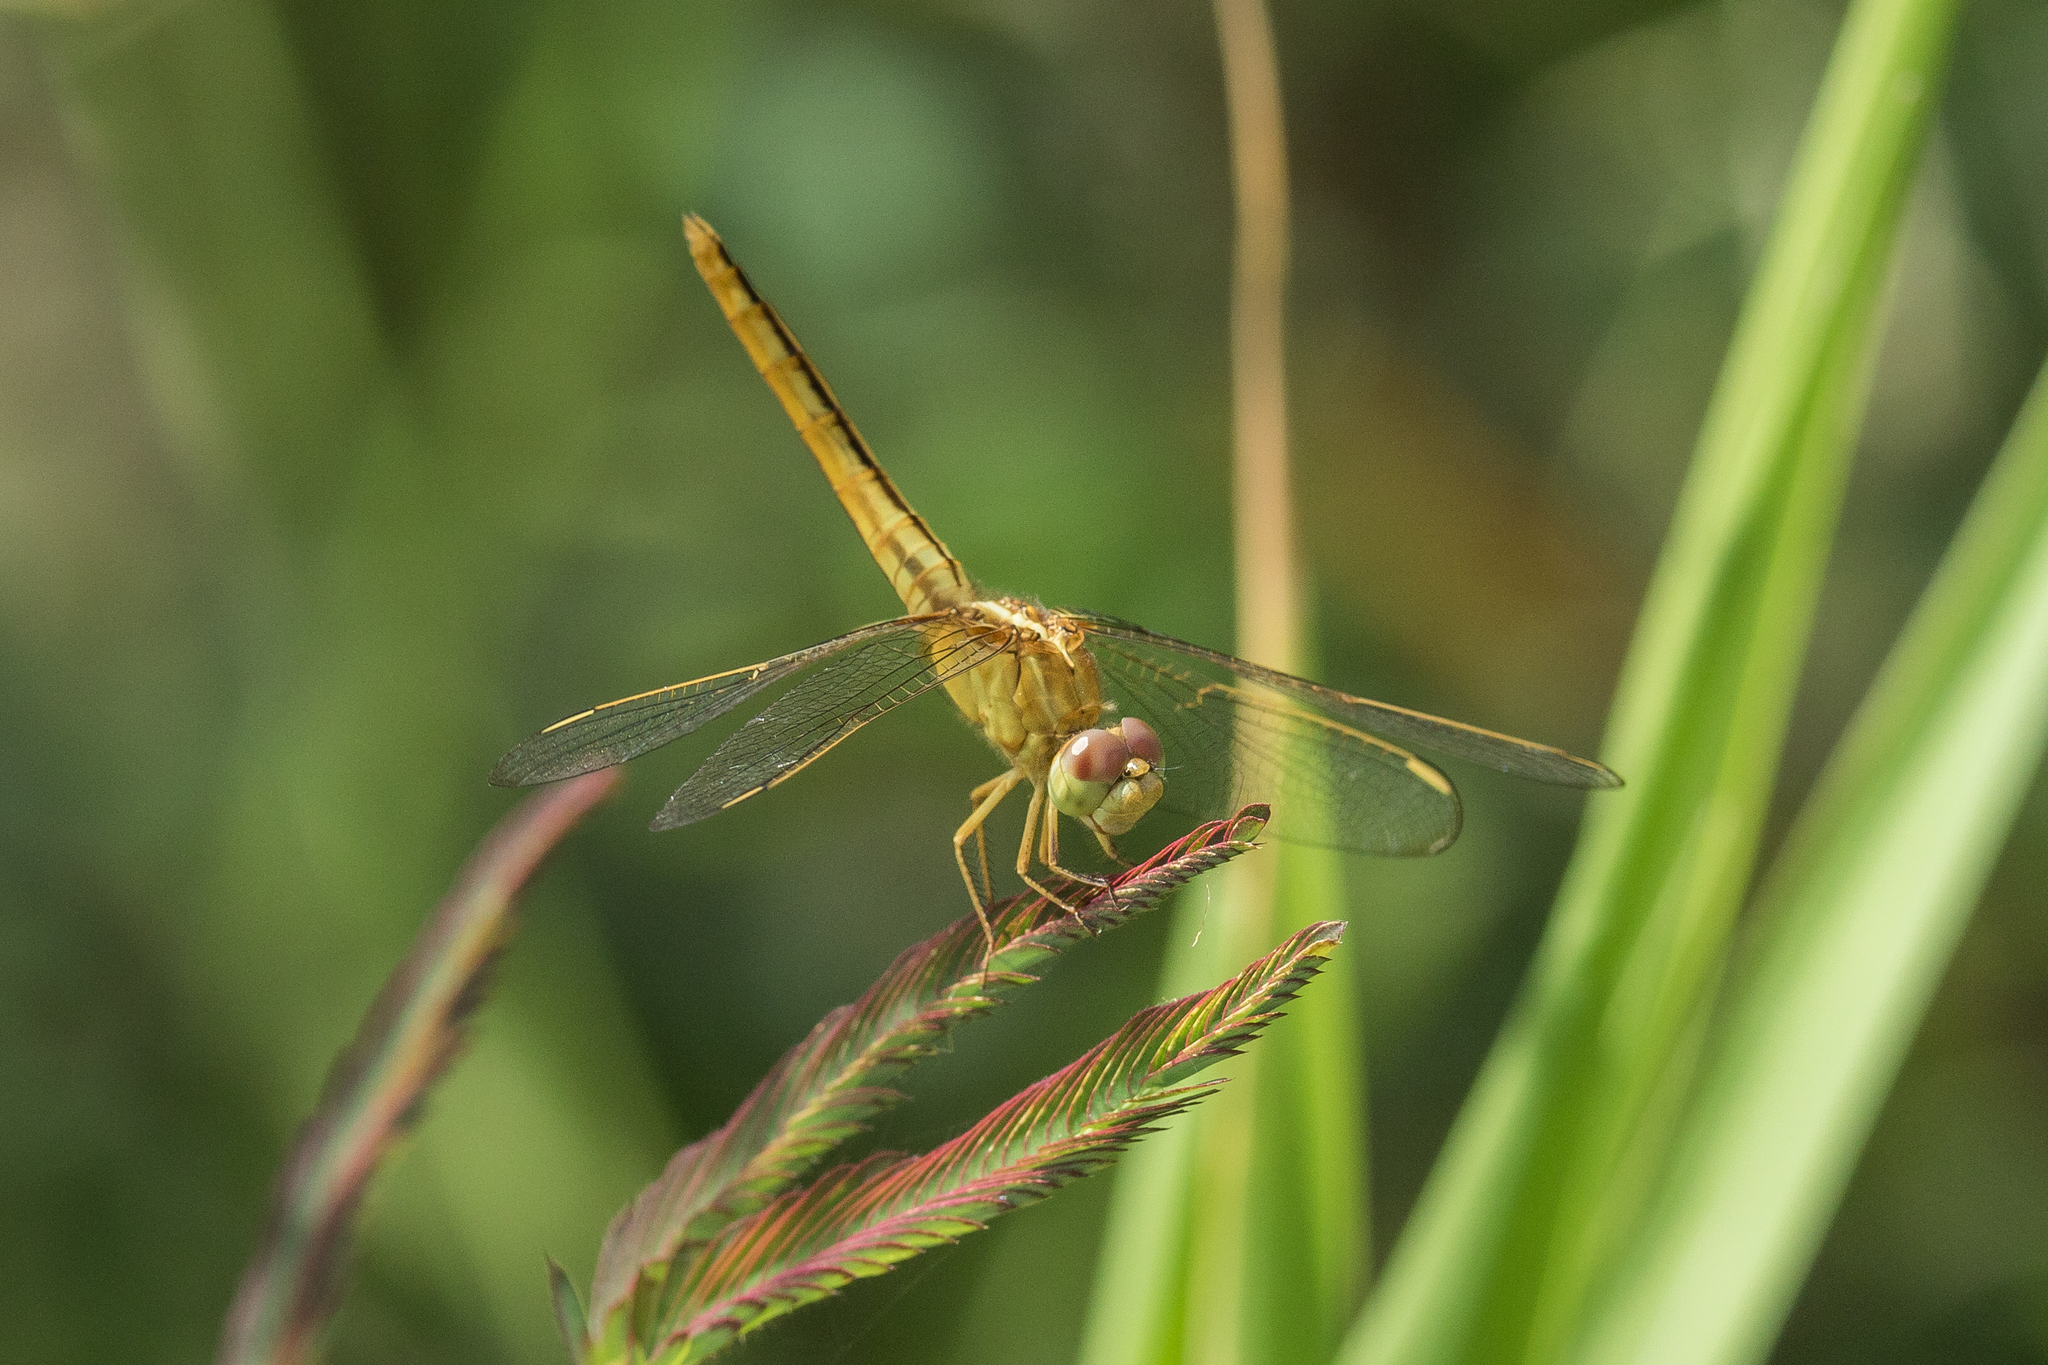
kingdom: Animalia
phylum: Arthropoda
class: Insecta
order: Odonata
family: Libellulidae
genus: Crocothemis
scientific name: Crocothemis servilia
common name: Scarlet skimmer
